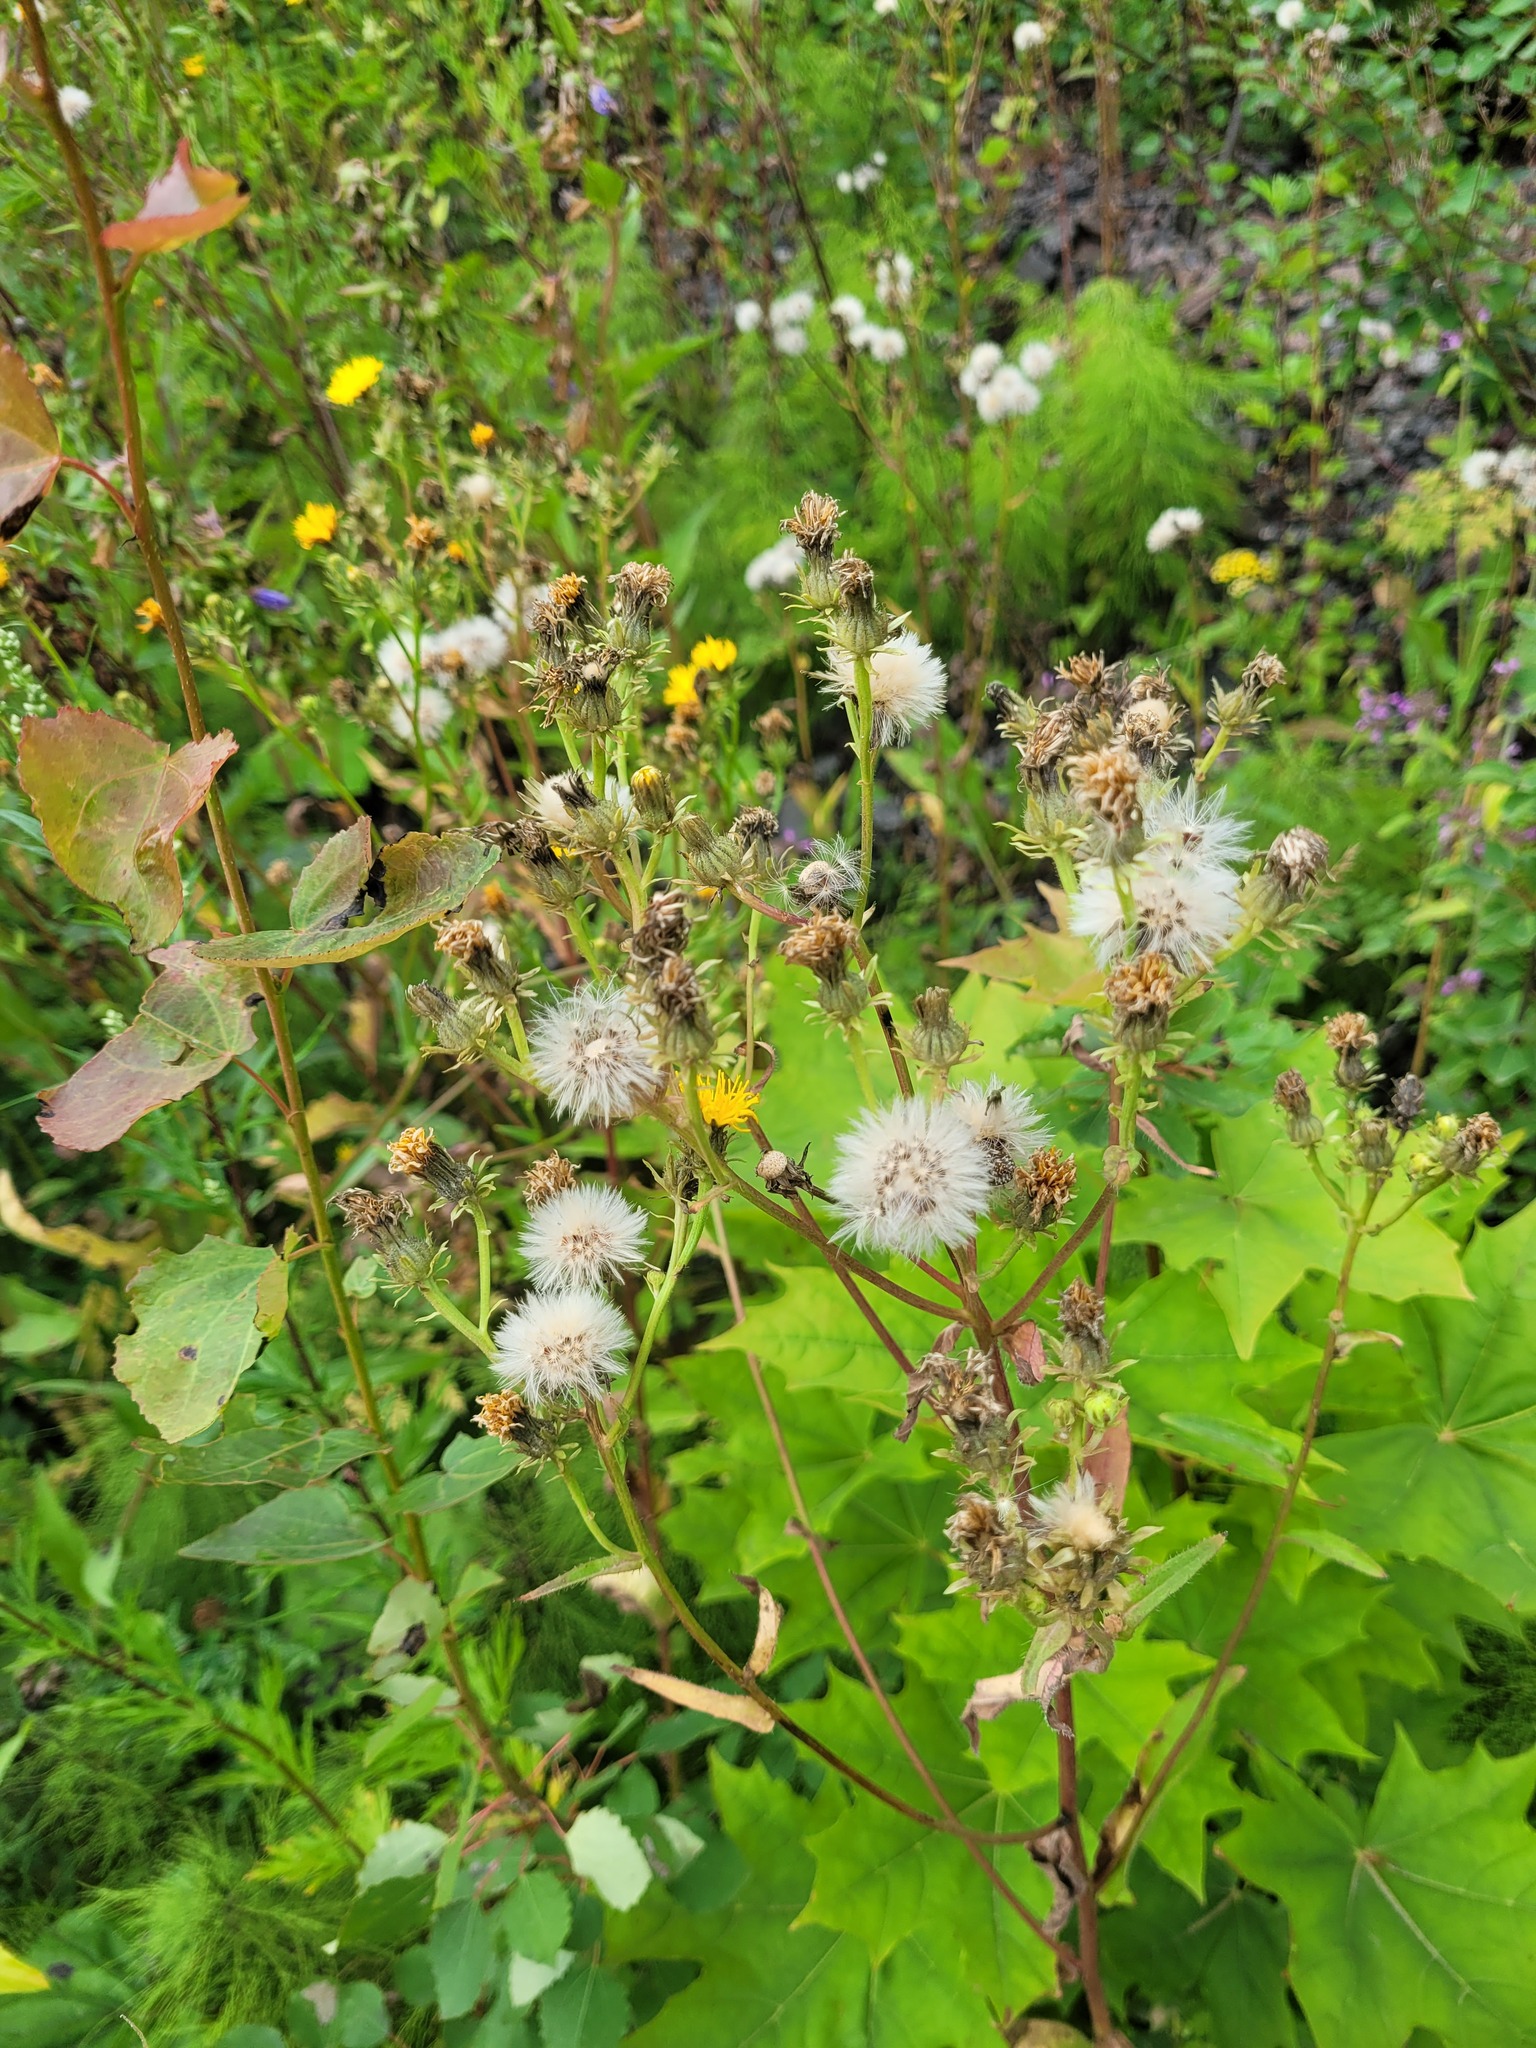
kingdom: Plantae
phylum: Tracheophyta
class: Magnoliopsida
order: Asterales
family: Asteraceae
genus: Picris
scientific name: Picris hieracioides
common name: Hawkweed oxtongue
